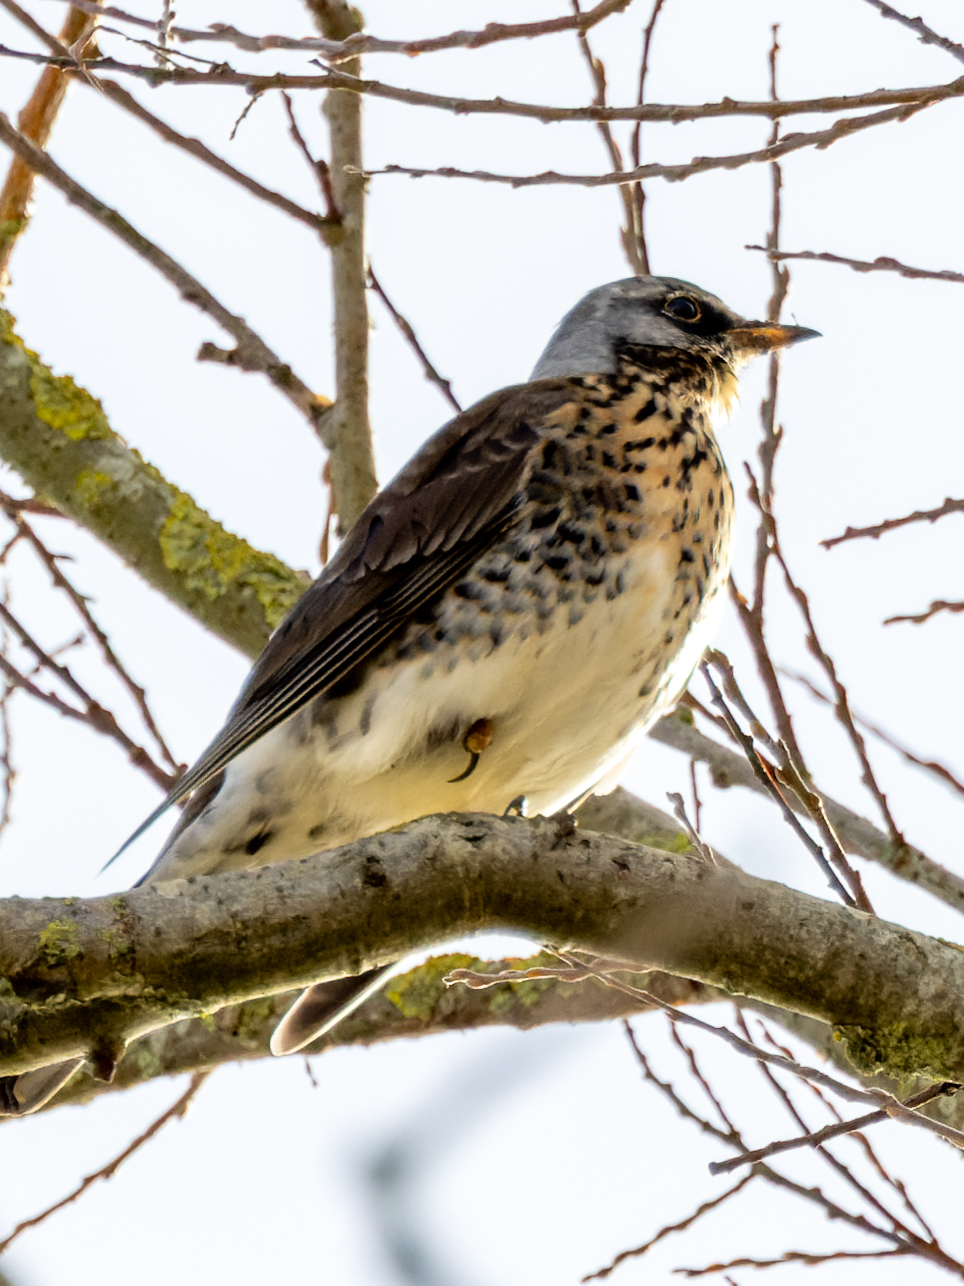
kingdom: Animalia
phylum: Chordata
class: Aves
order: Passeriformes
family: Turdidae
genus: Turdus
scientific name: Turdus pilaris
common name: Fieldfare
